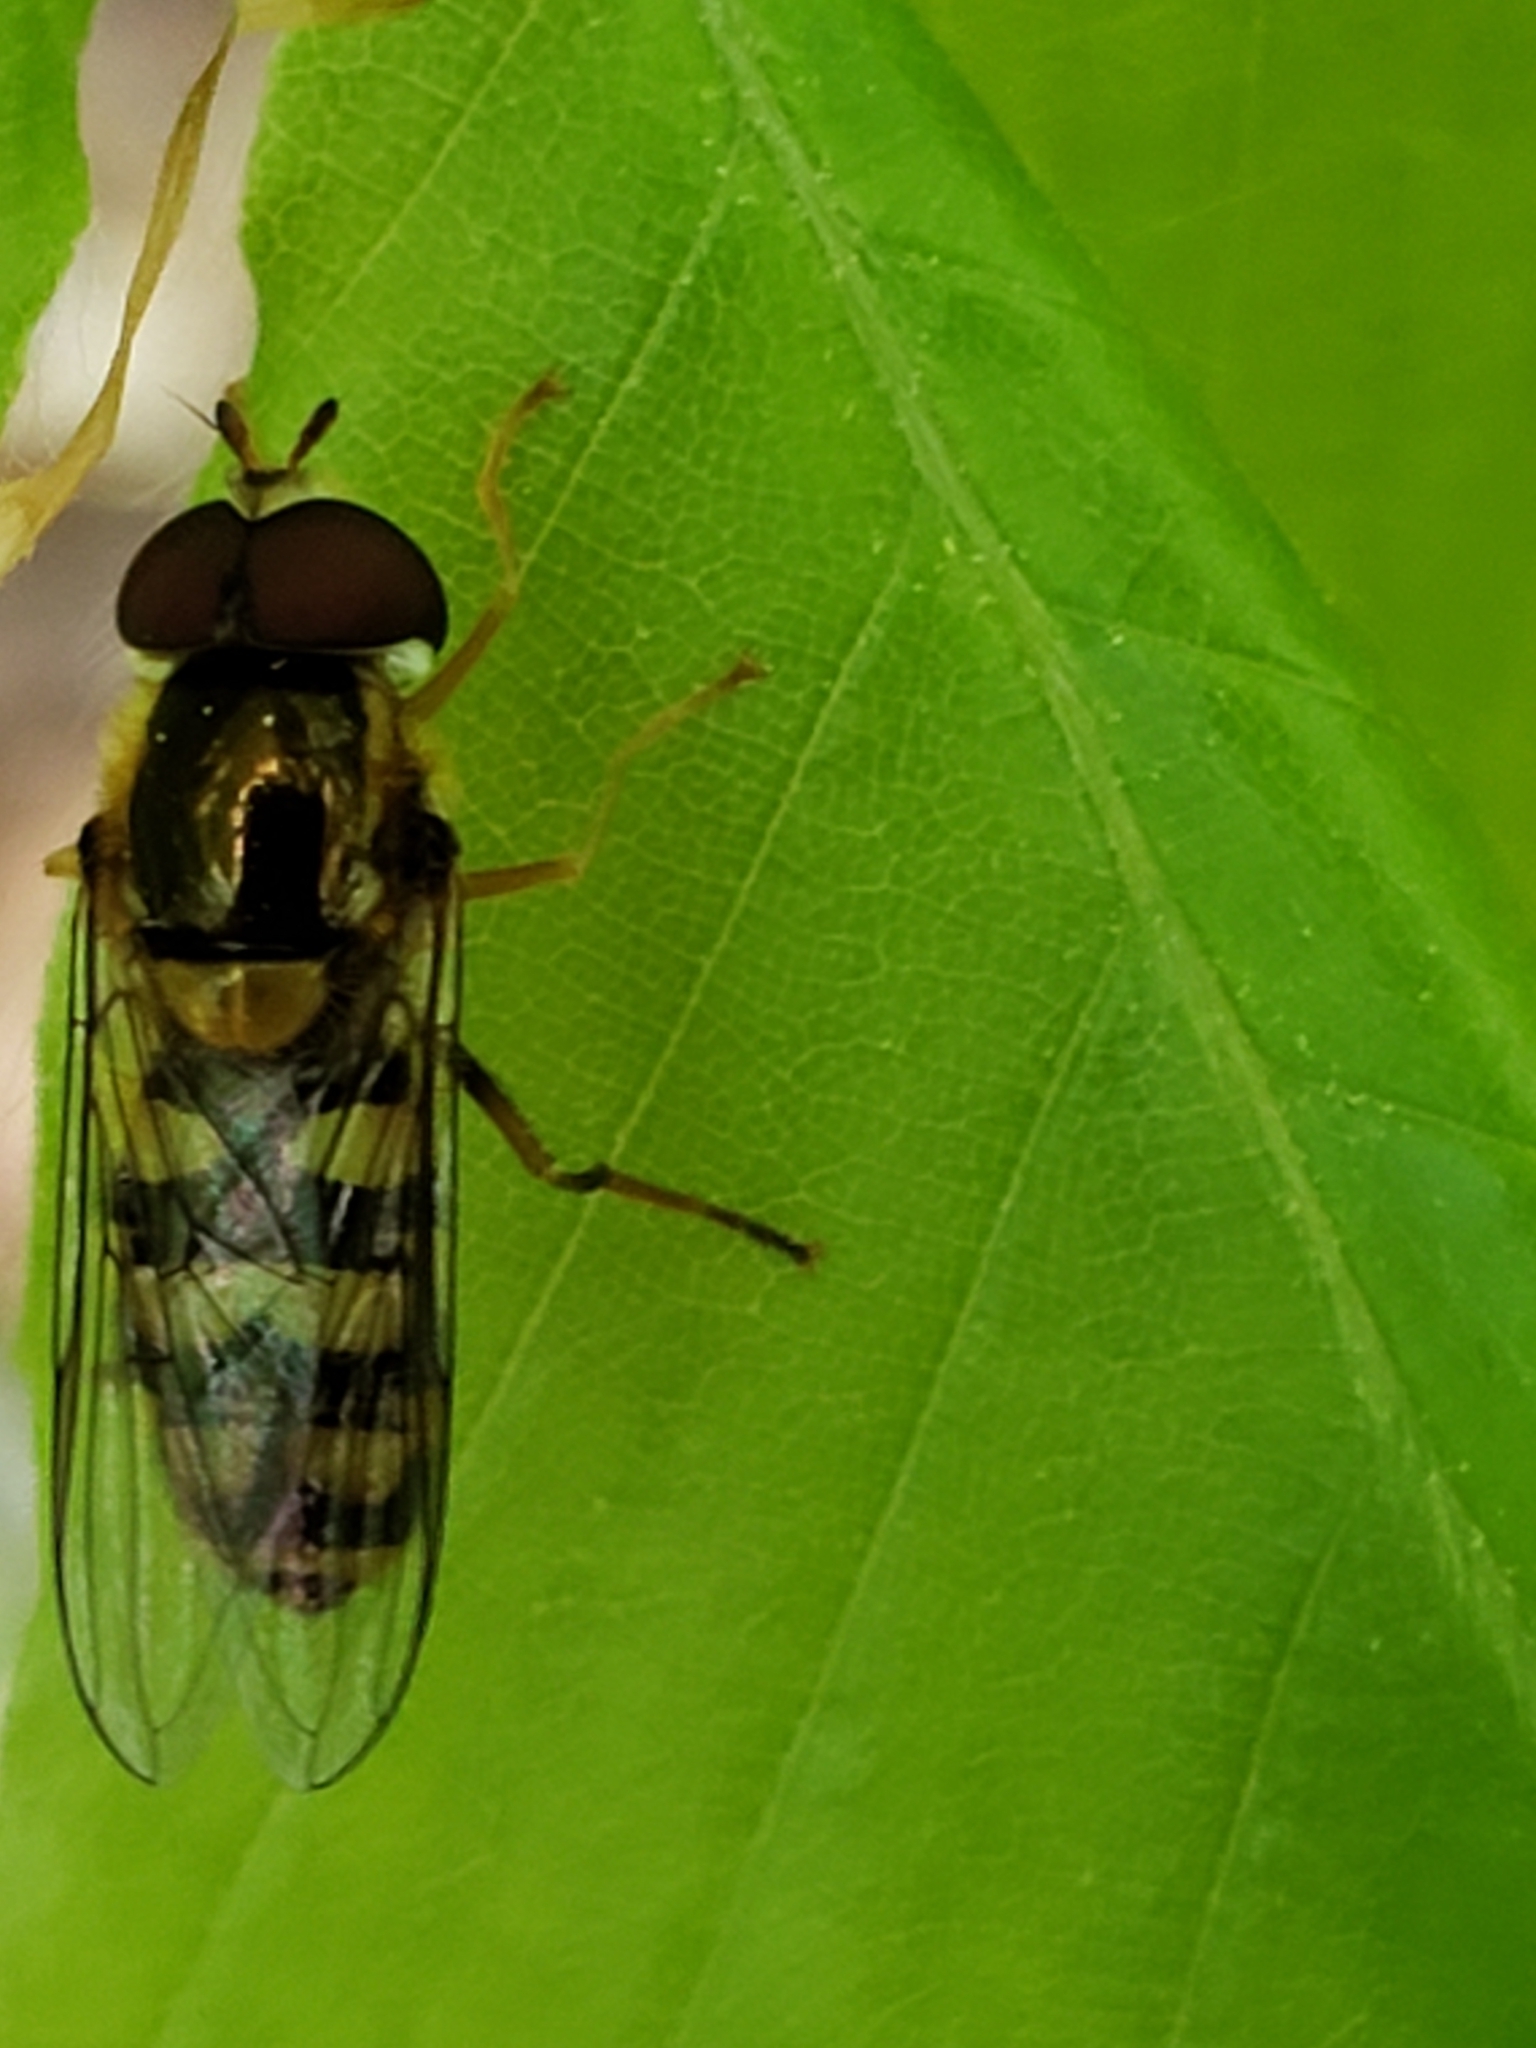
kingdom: Animalia
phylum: Arthropoda
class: Insecta
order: Diptera
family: Syrphidae
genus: Epistrophella
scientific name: Epistrophella emarginata
